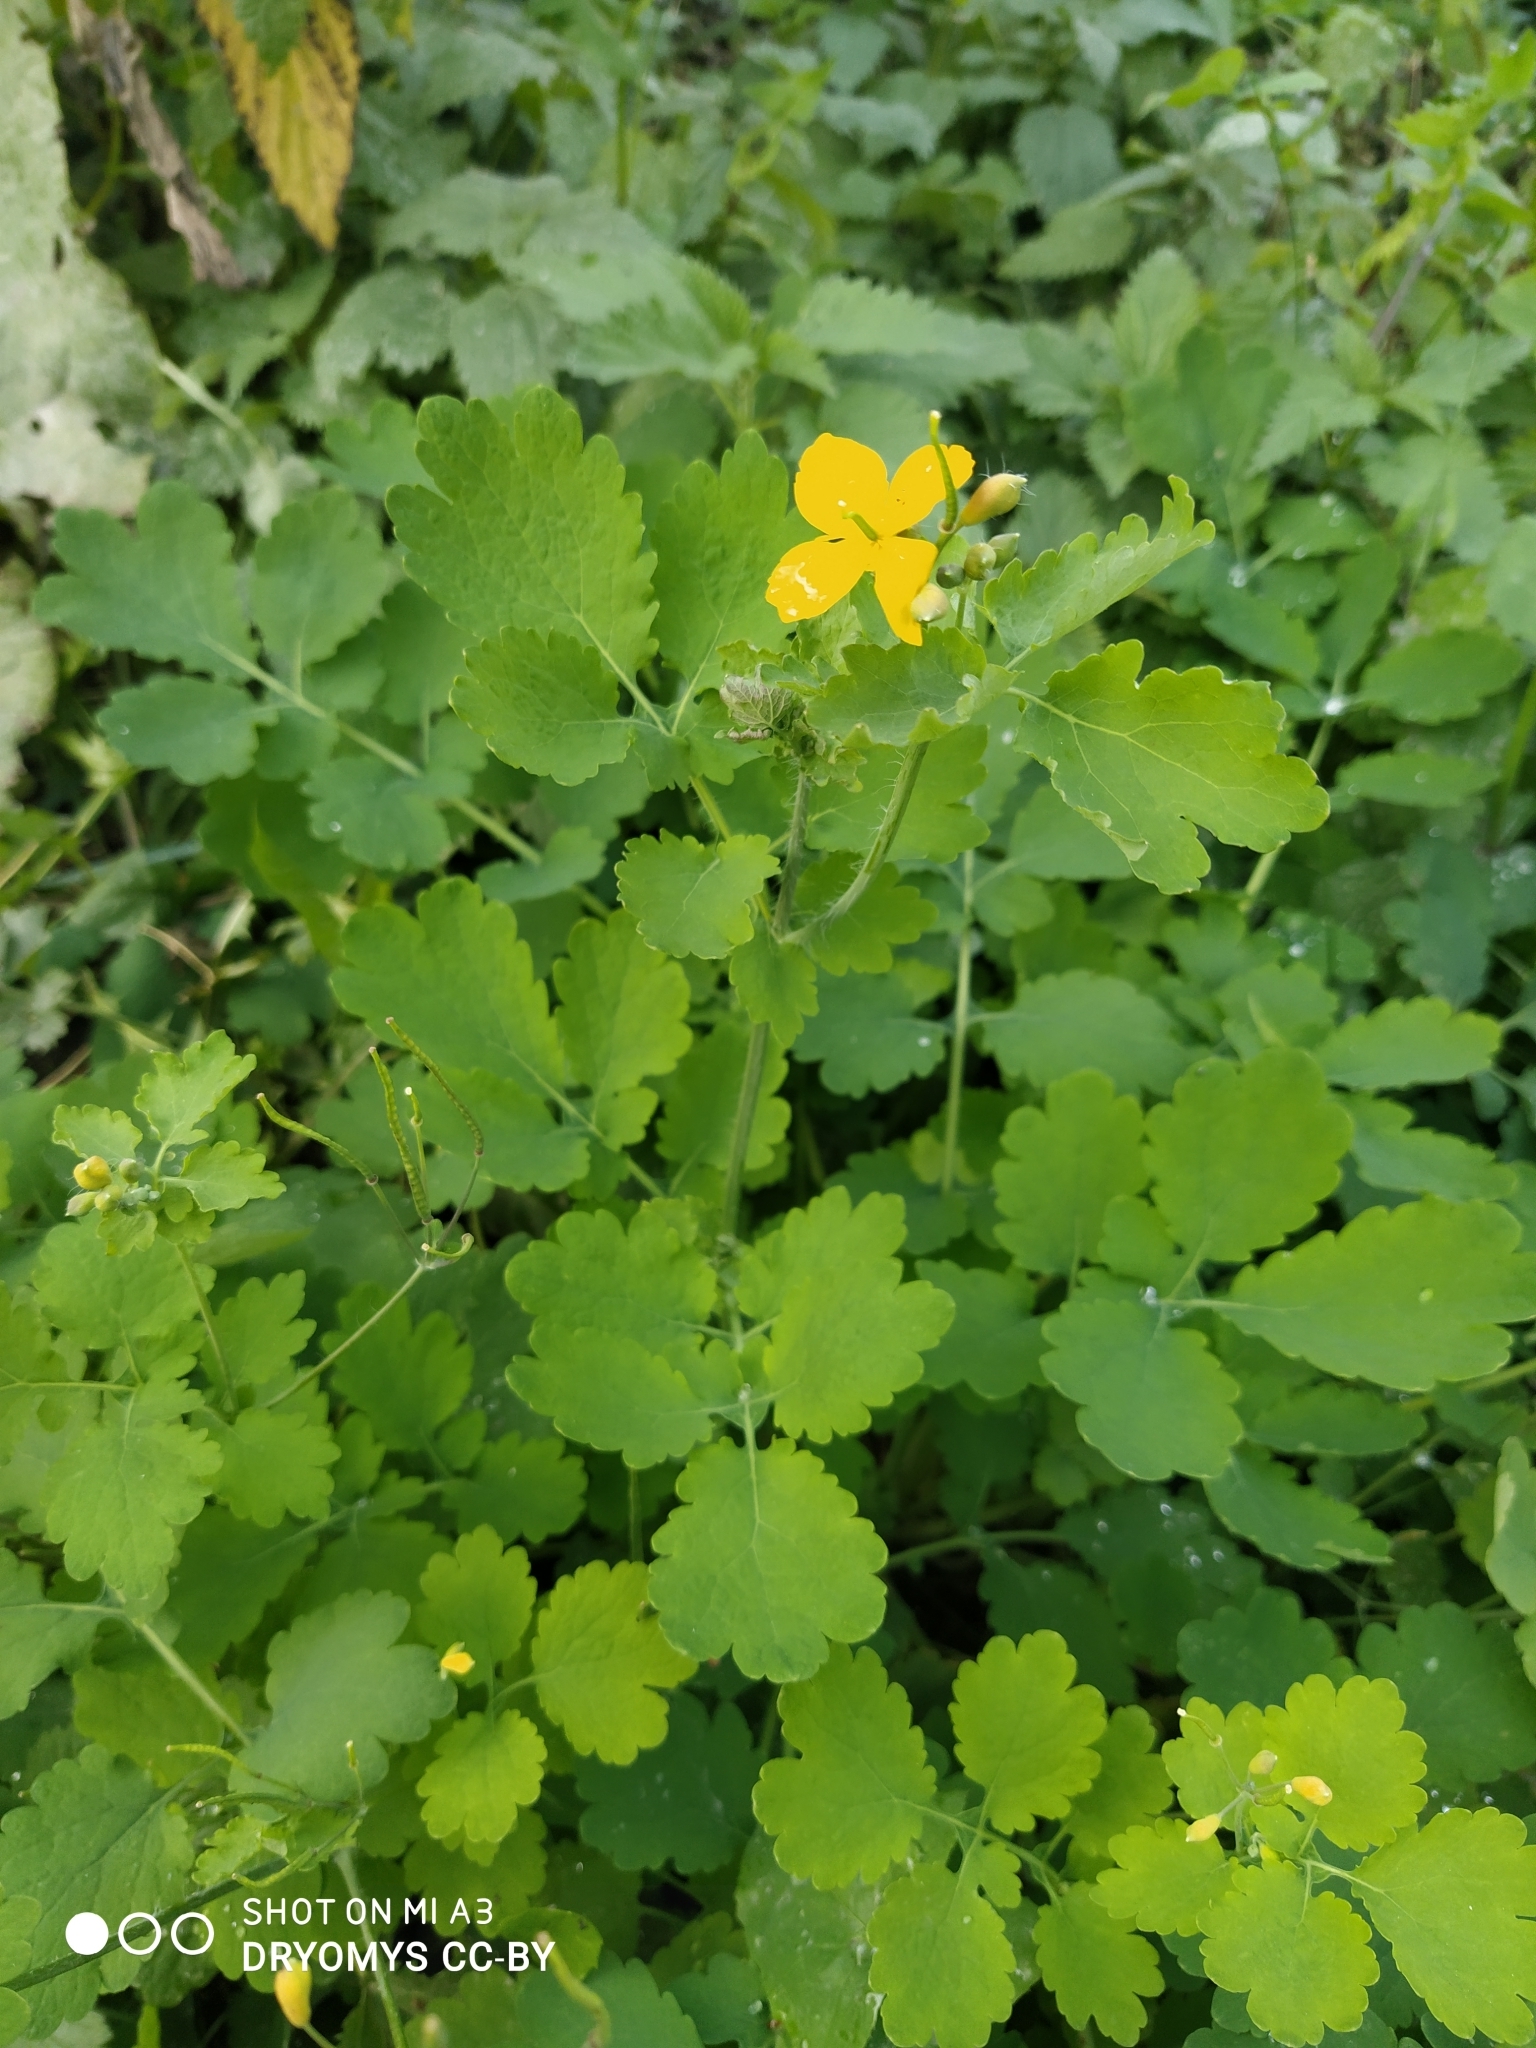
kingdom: Plantae
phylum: Tracheophyta
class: Magnoliopsida
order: Ranunculales
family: Papaveraceae
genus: Chelidonium
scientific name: Chelidonium majus
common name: Greater celandine
